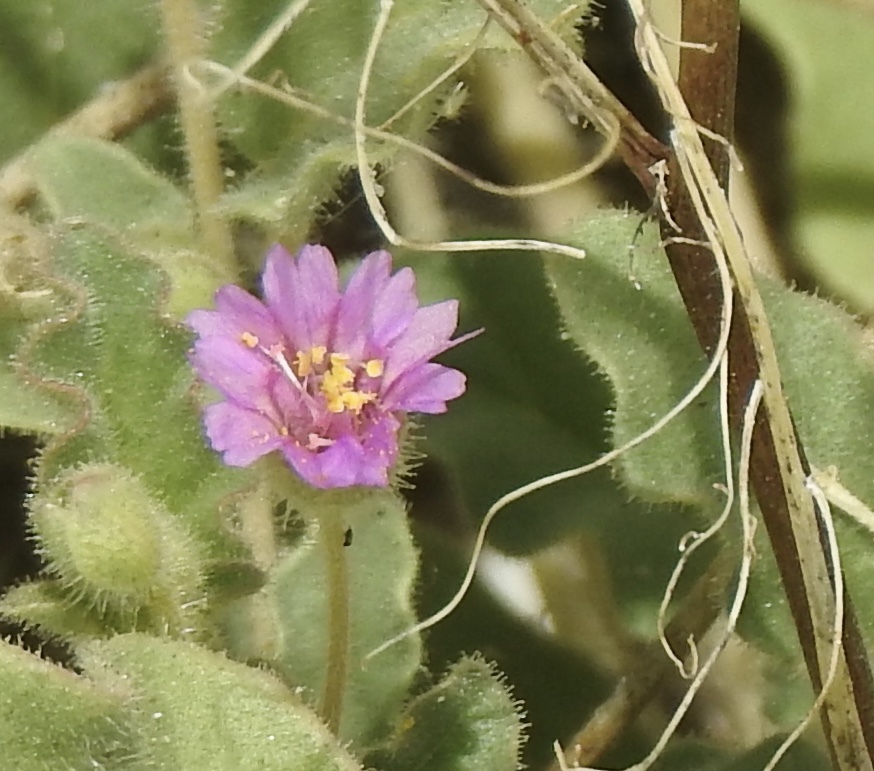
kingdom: Plantae
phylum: Tracheophyta
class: Magnoliopsida
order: Caryophyllales
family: Nyctaginaceae
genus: Allionia
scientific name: Allionia incarnata
